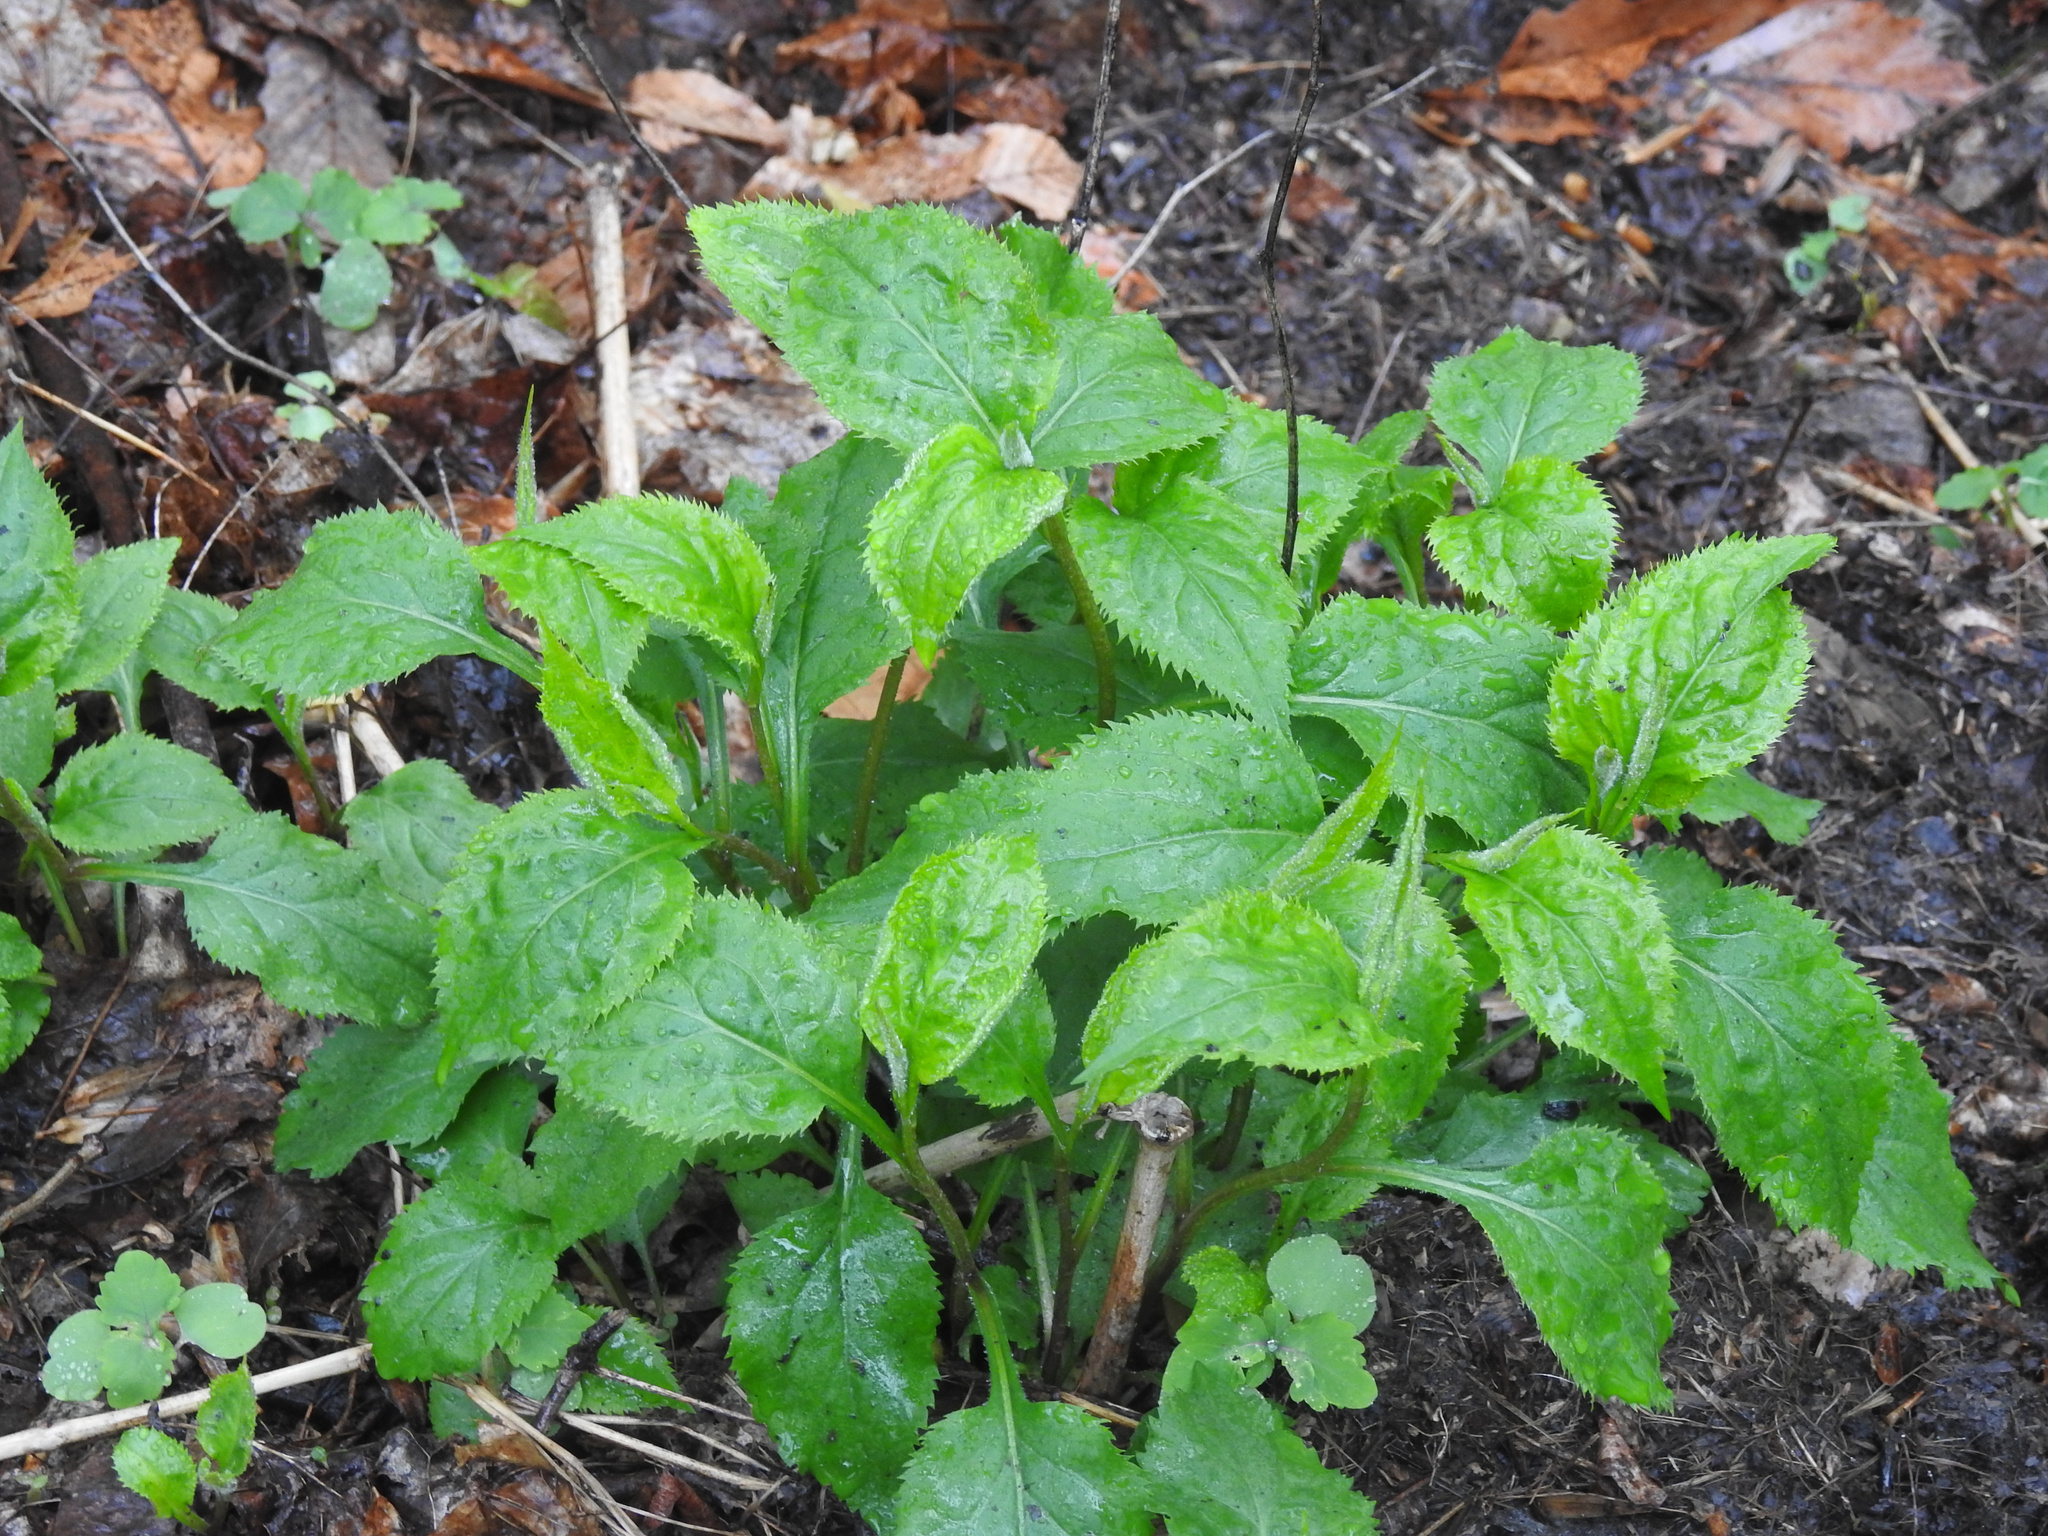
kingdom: Plantae
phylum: Tracheophyta
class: Magnoliopsida
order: Asterales
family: Asteraceae
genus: Solidago
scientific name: Solidago flexicaulis
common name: Zig-zag goldenrod
